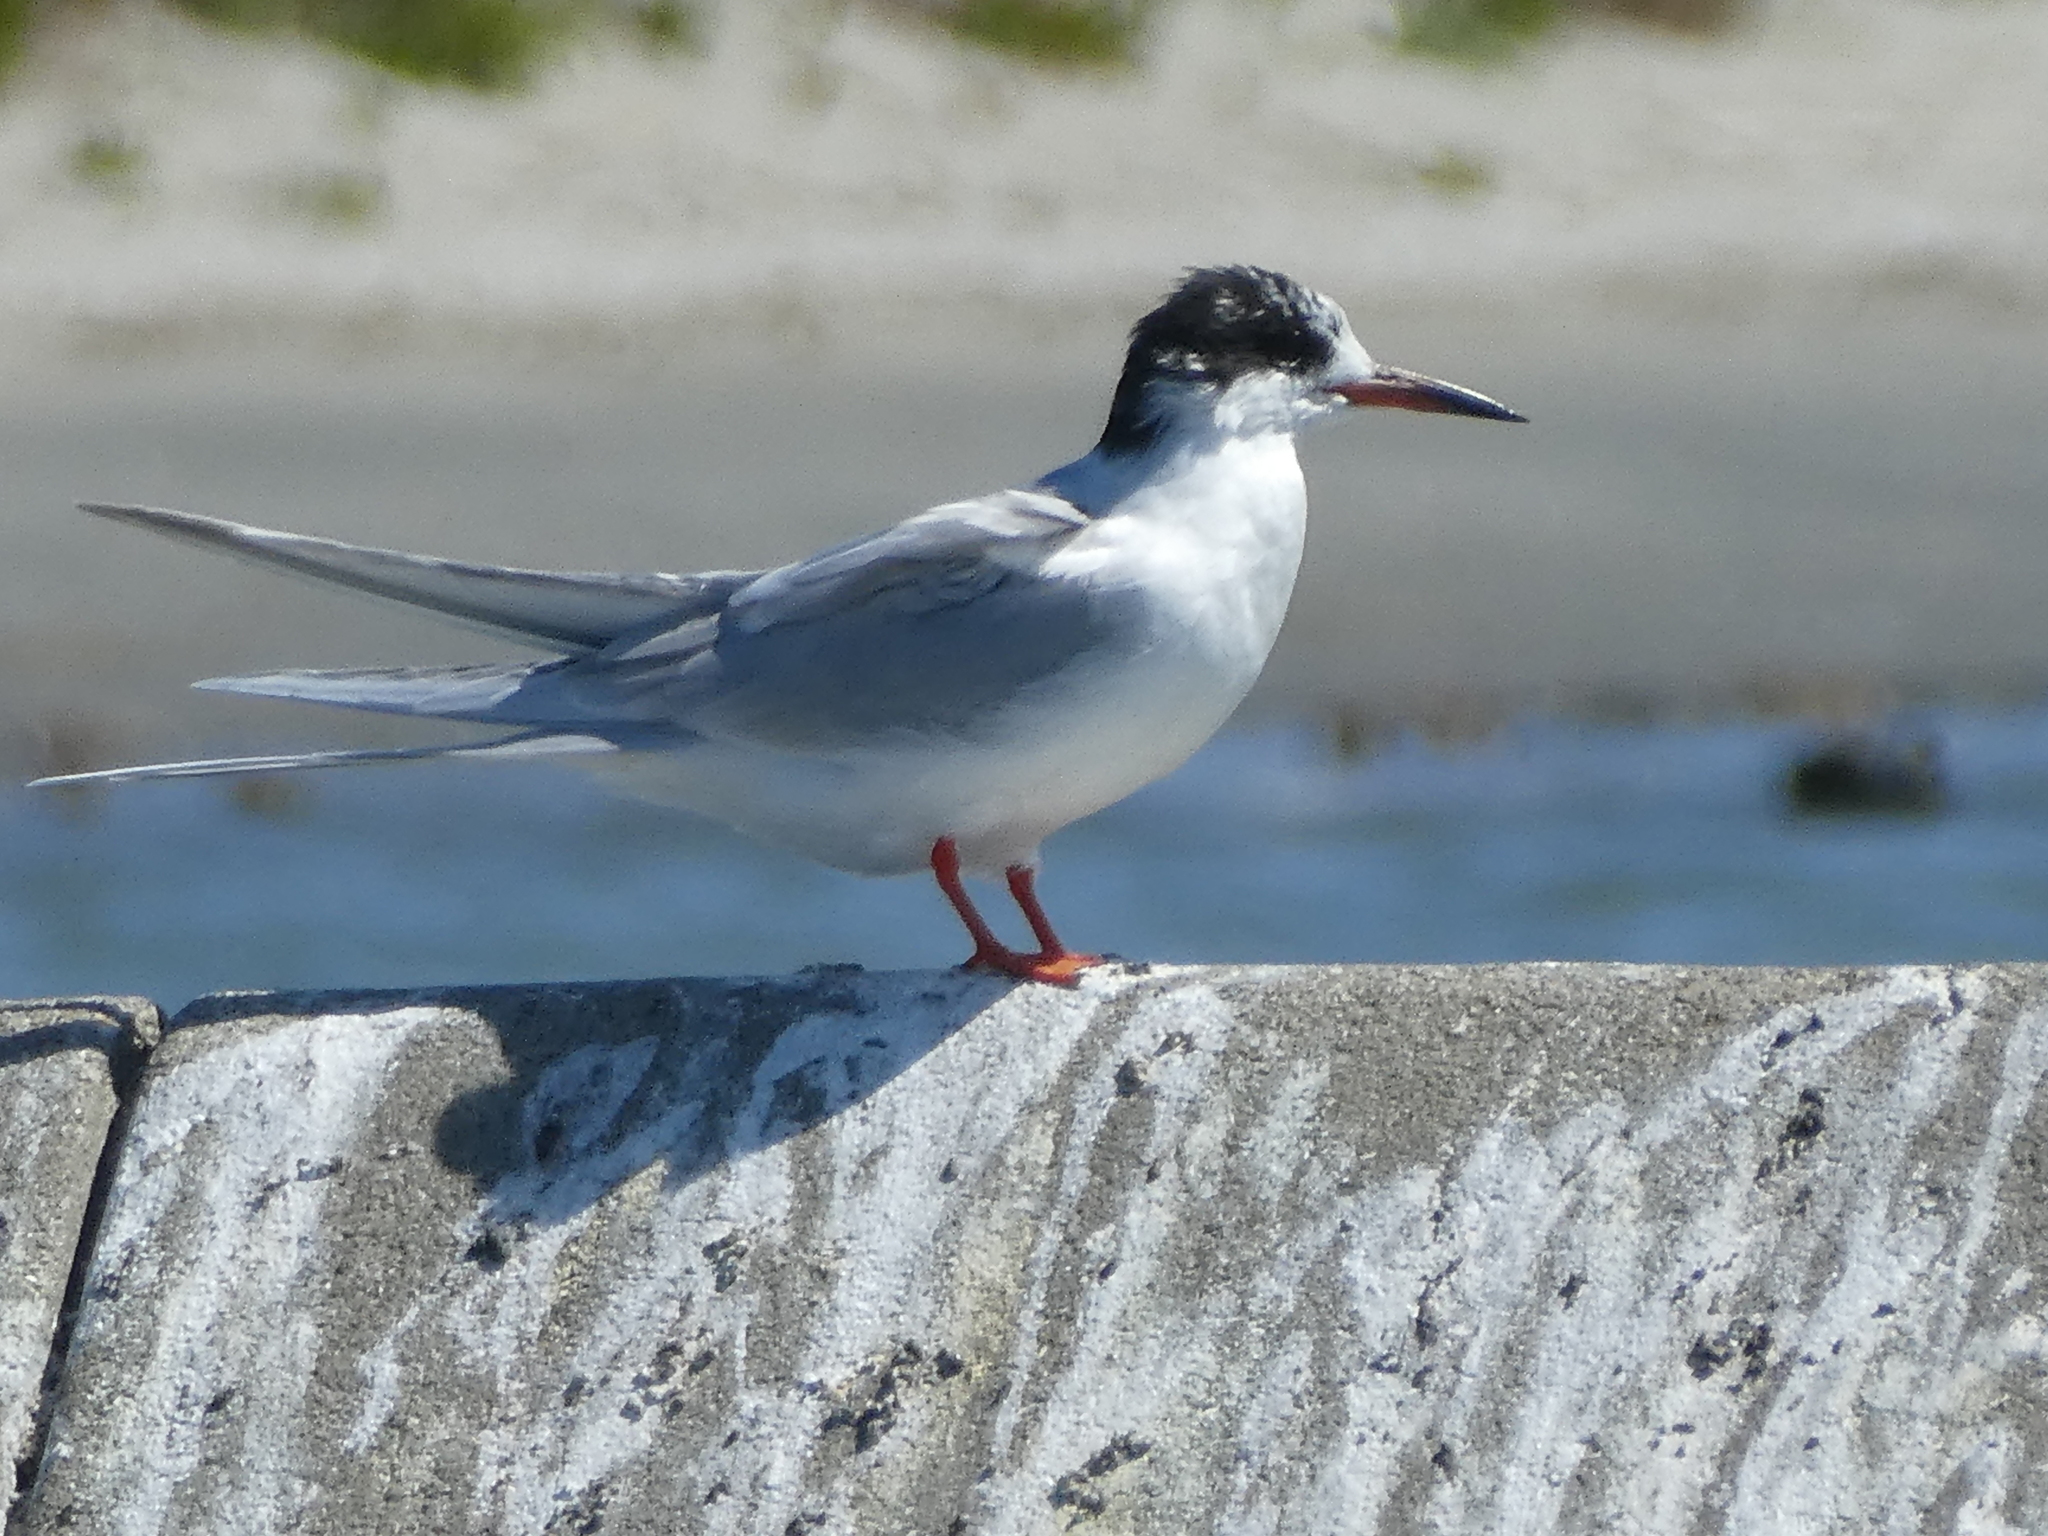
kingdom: Animalia
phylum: Chordata
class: Aves
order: Charadriiformes
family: Laridae
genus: Sterna
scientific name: Sterna forsteri
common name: Forster's tern
